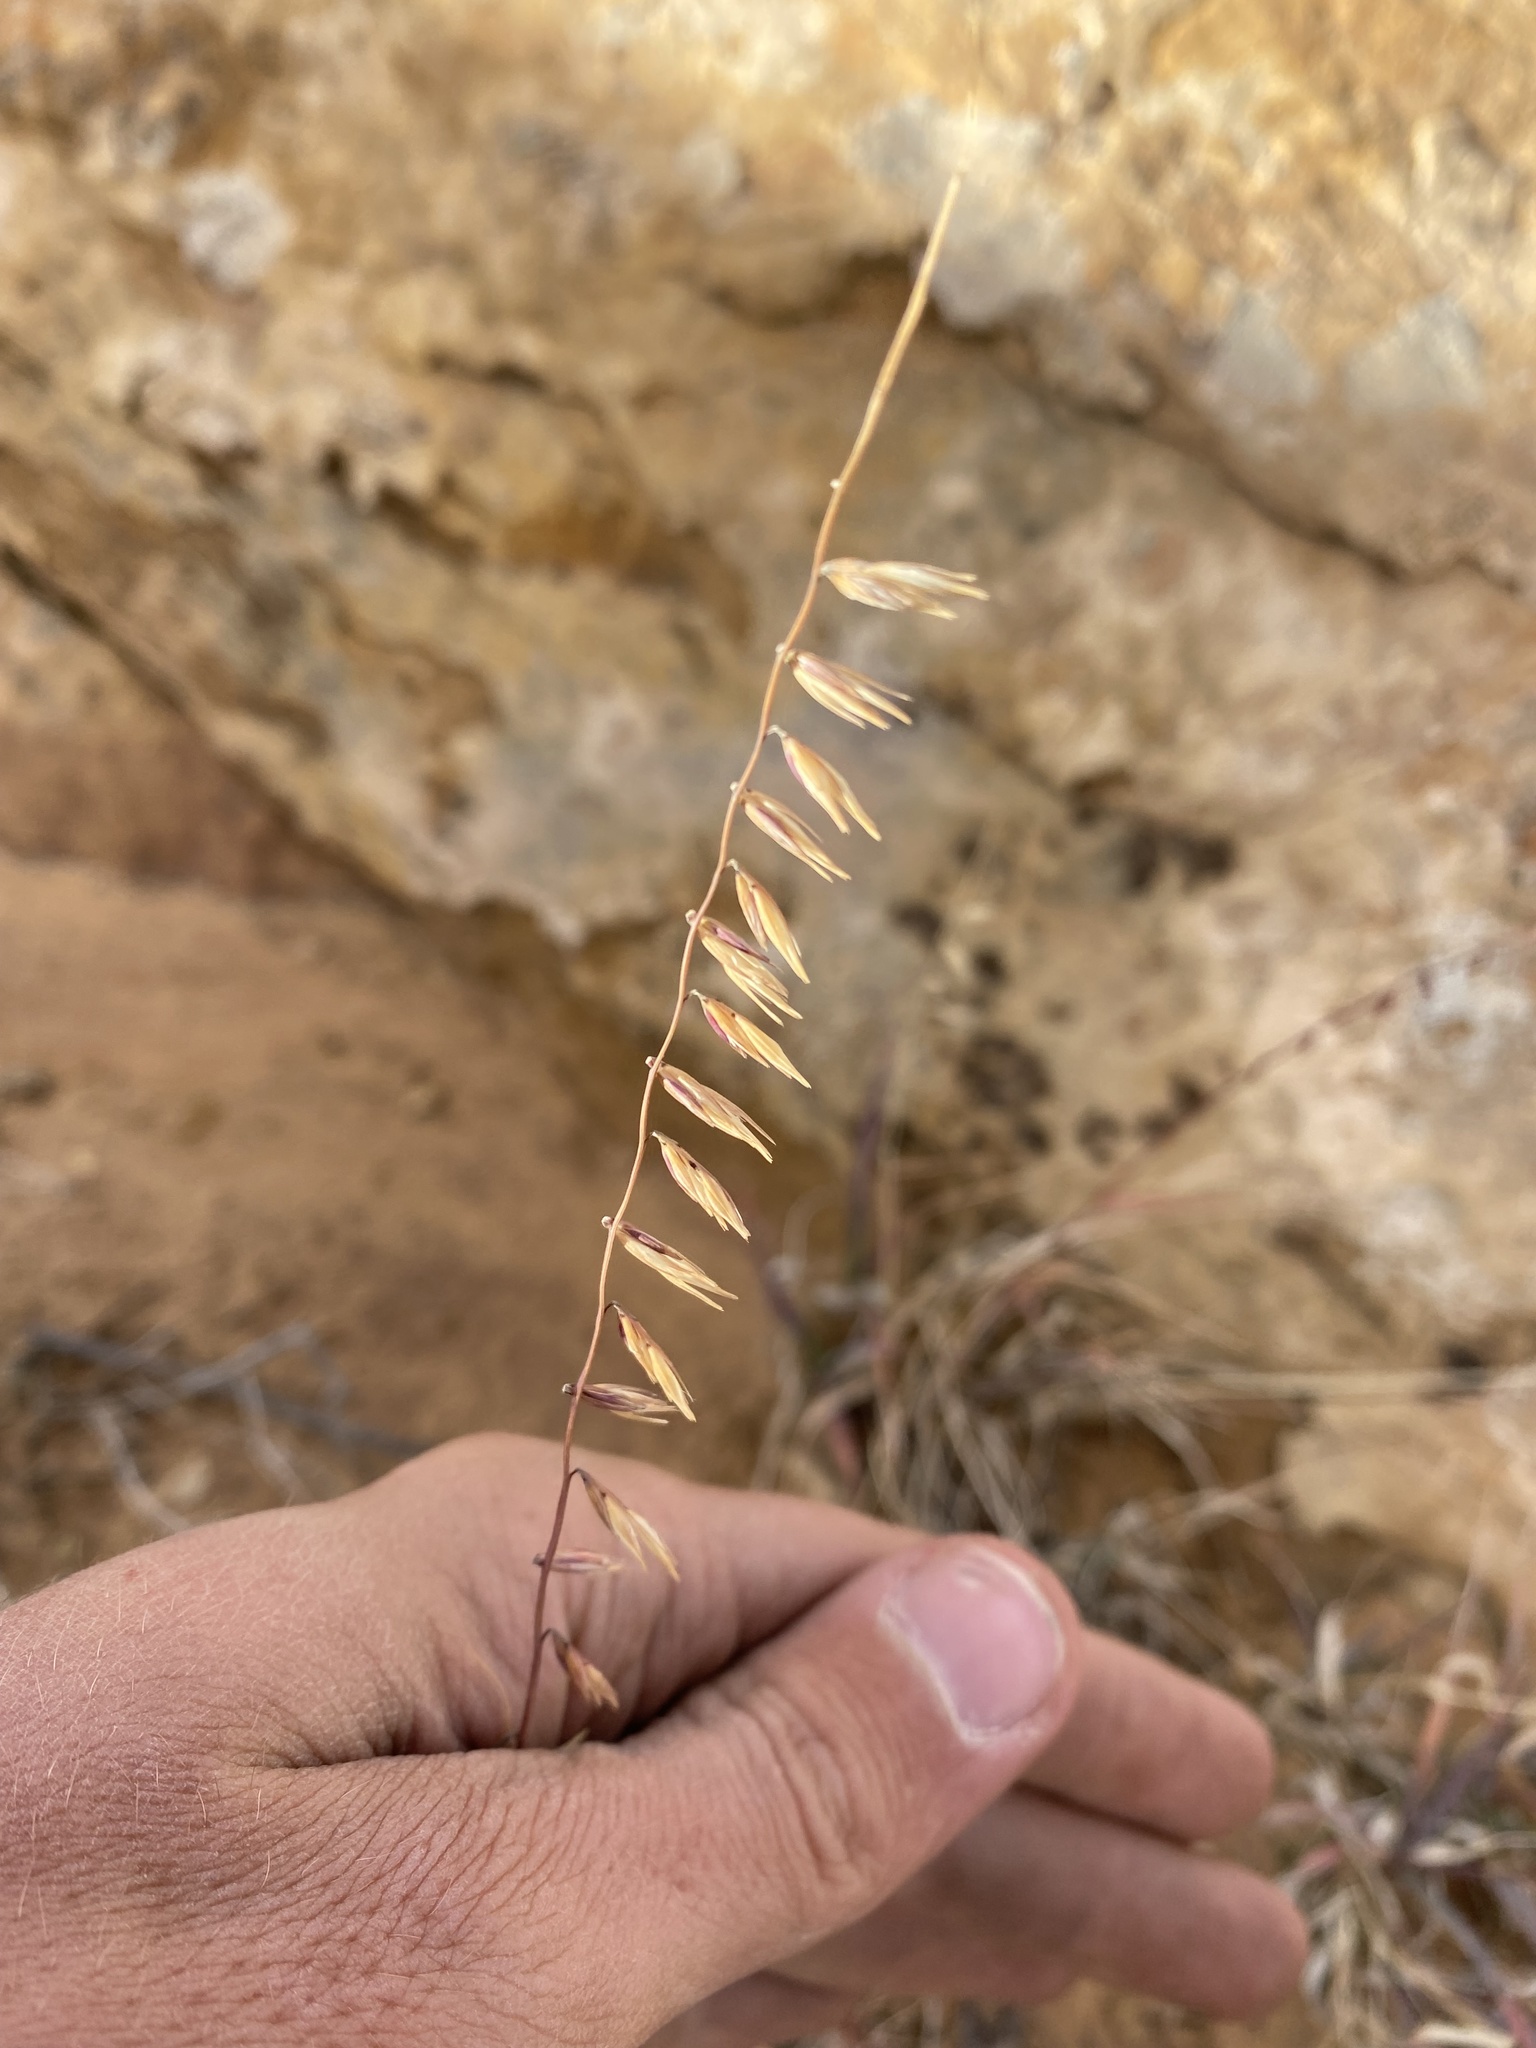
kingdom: Plantae
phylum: Tracheophyta
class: Liliopsida
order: Poales
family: Poaceae
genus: Bouteloua
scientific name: Bouteloua curtipendula
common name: Side-oats grama
